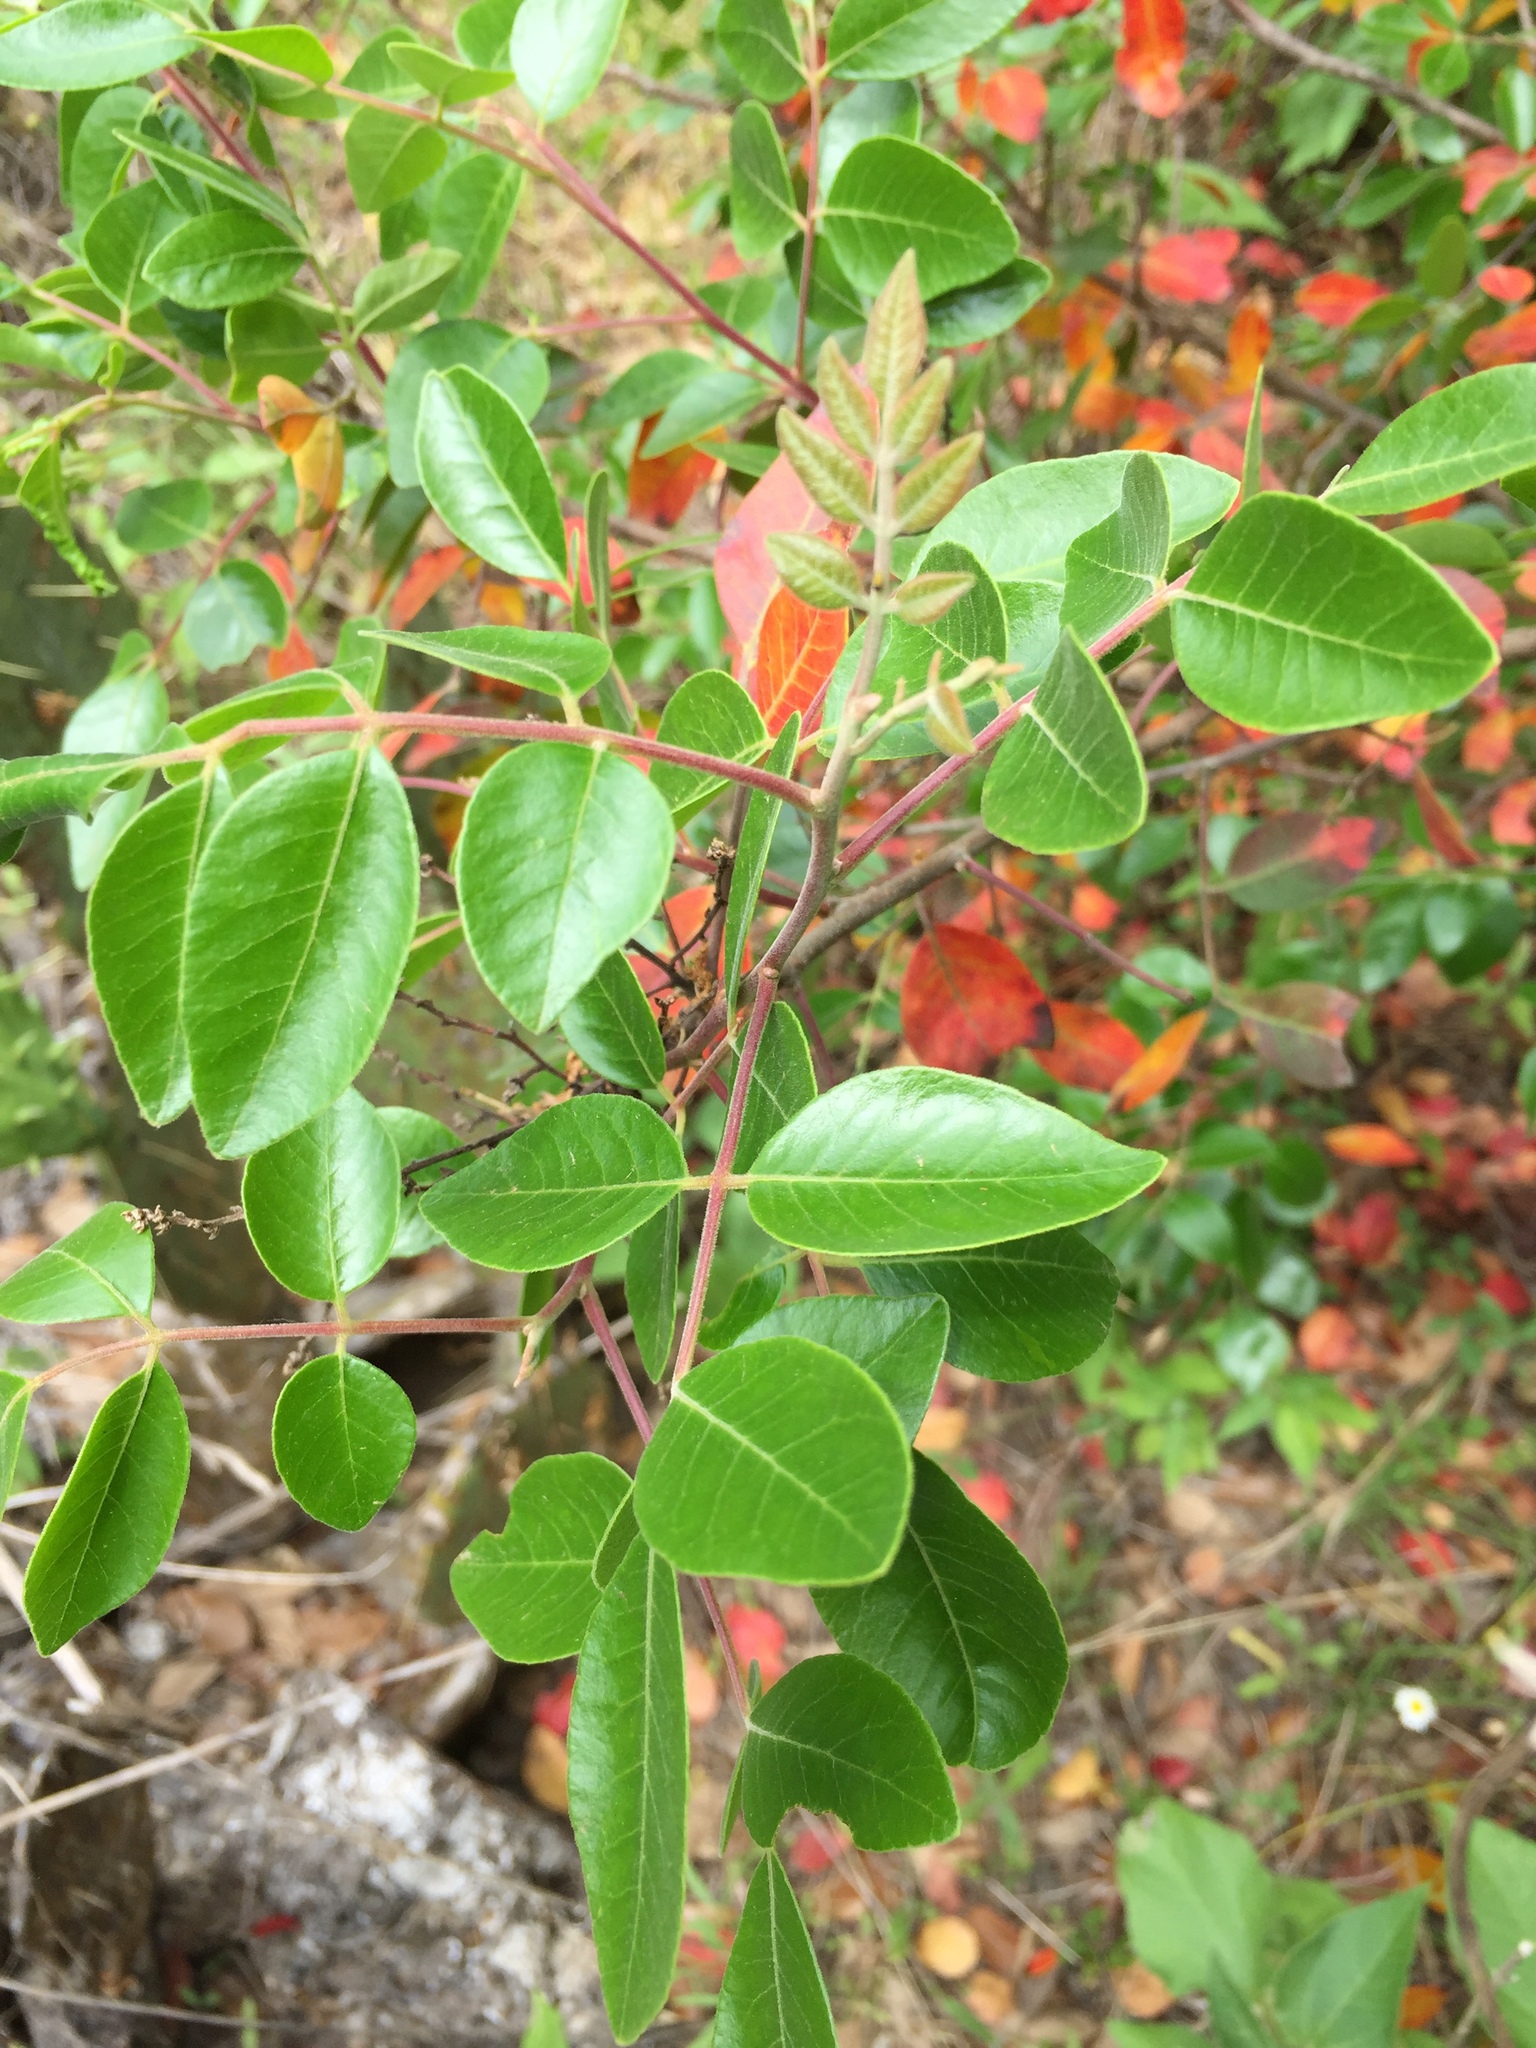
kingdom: Plantae
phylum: Tracheophyta
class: Magnoliopsida
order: Sapindales
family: Anacardiaceae
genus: Rhus
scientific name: Rhus virens
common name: Evergreen sumac
